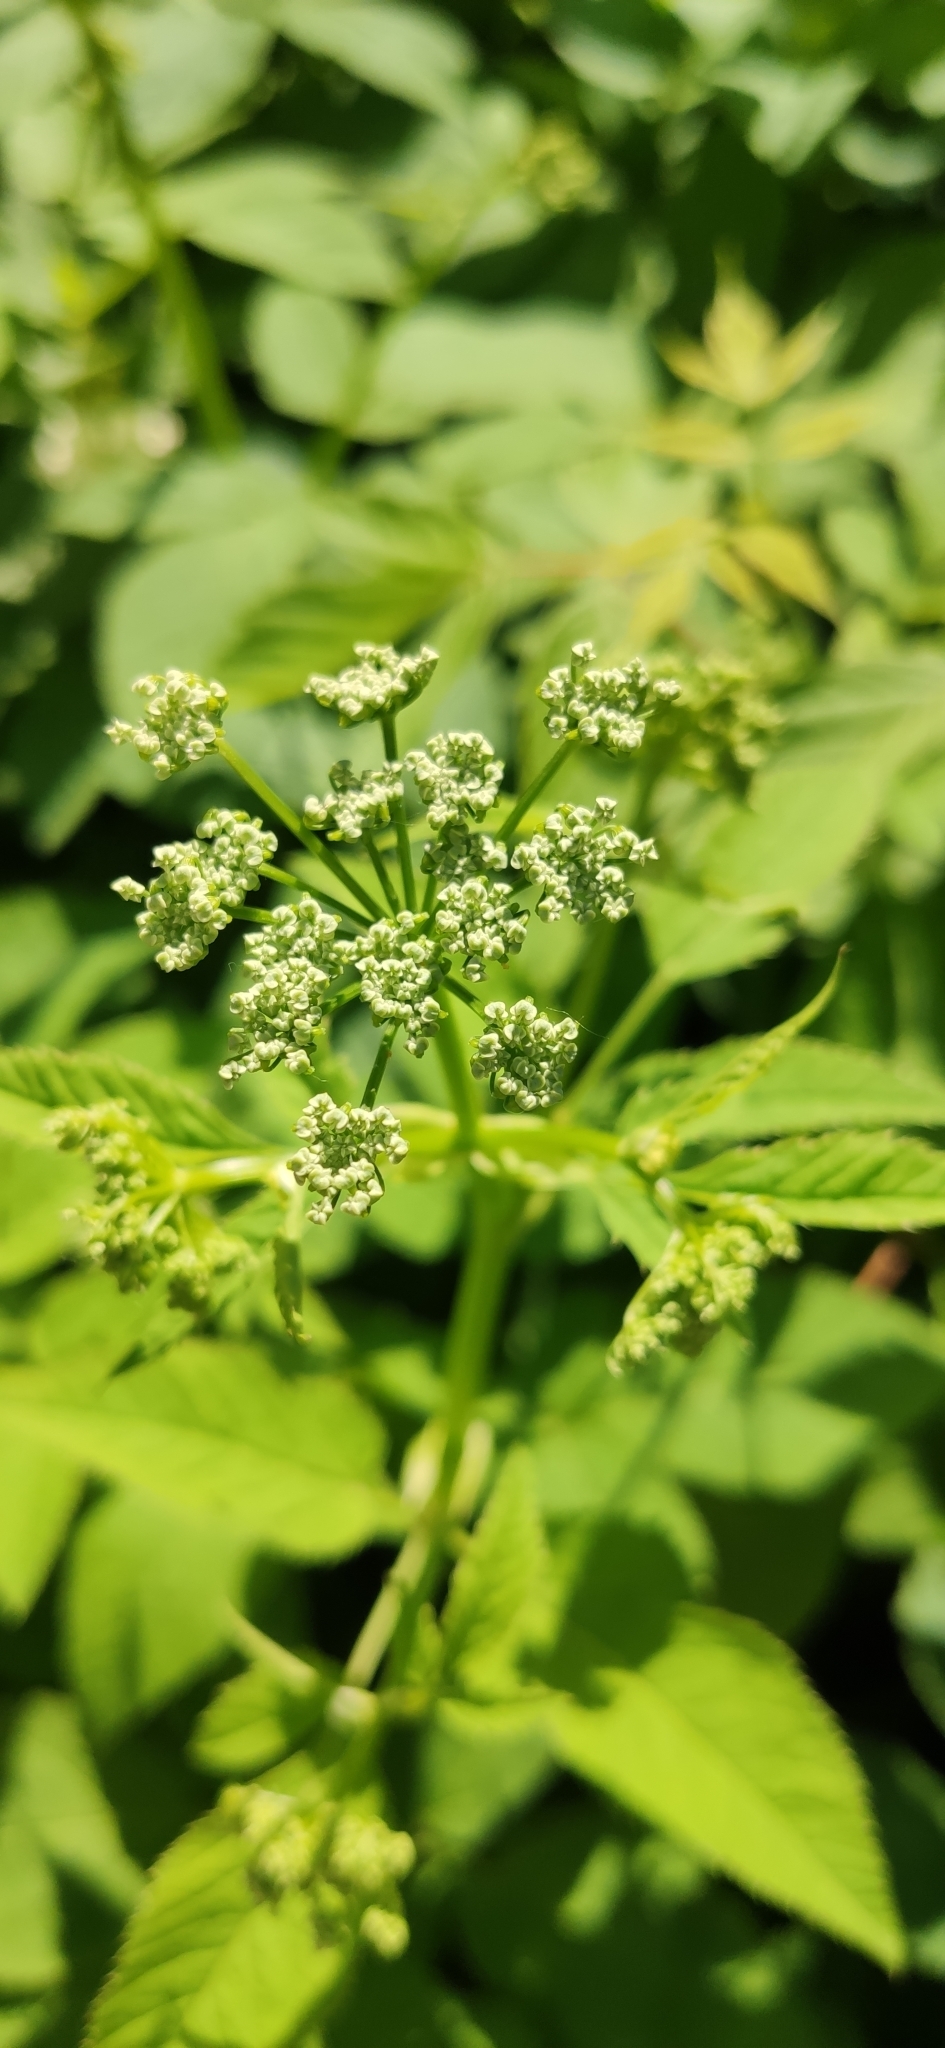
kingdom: Plantae
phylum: Tracheophyta
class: Magnoliopsida
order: Apiales
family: Apiaceae
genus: Aegopodium
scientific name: Aegopodium podagraria
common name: Ground-elder
